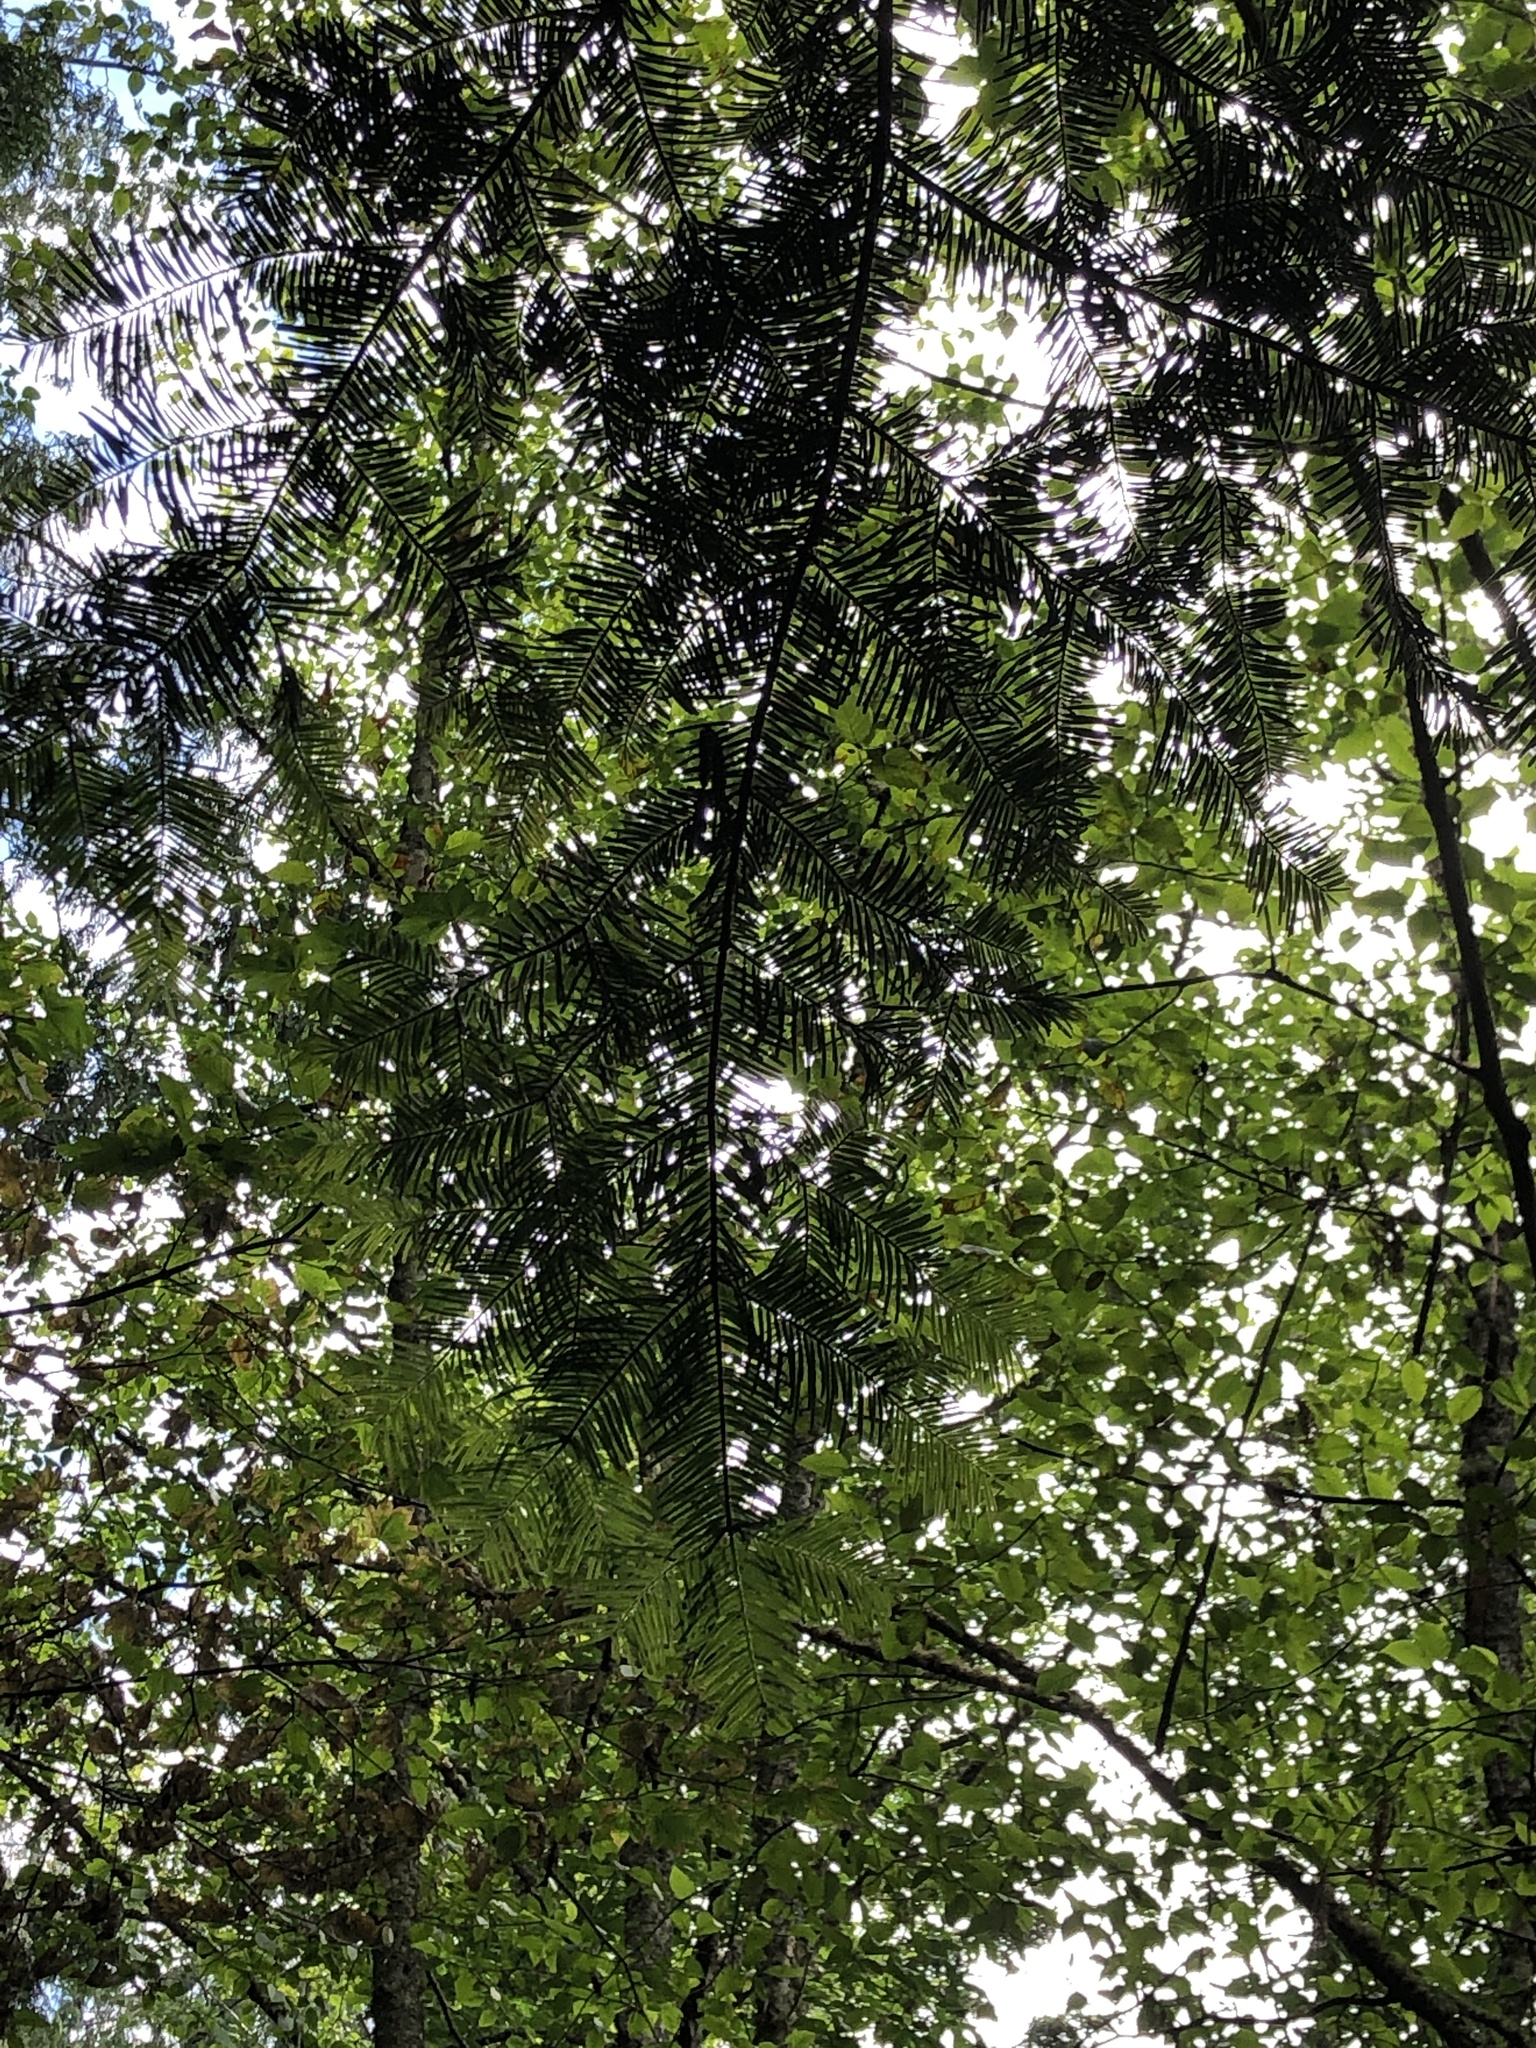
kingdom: Plantae
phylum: Tracheophyta
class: Pinopsida
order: Pinales
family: Pinaceae
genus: Abies
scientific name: Abies grandis
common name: Giant fir
